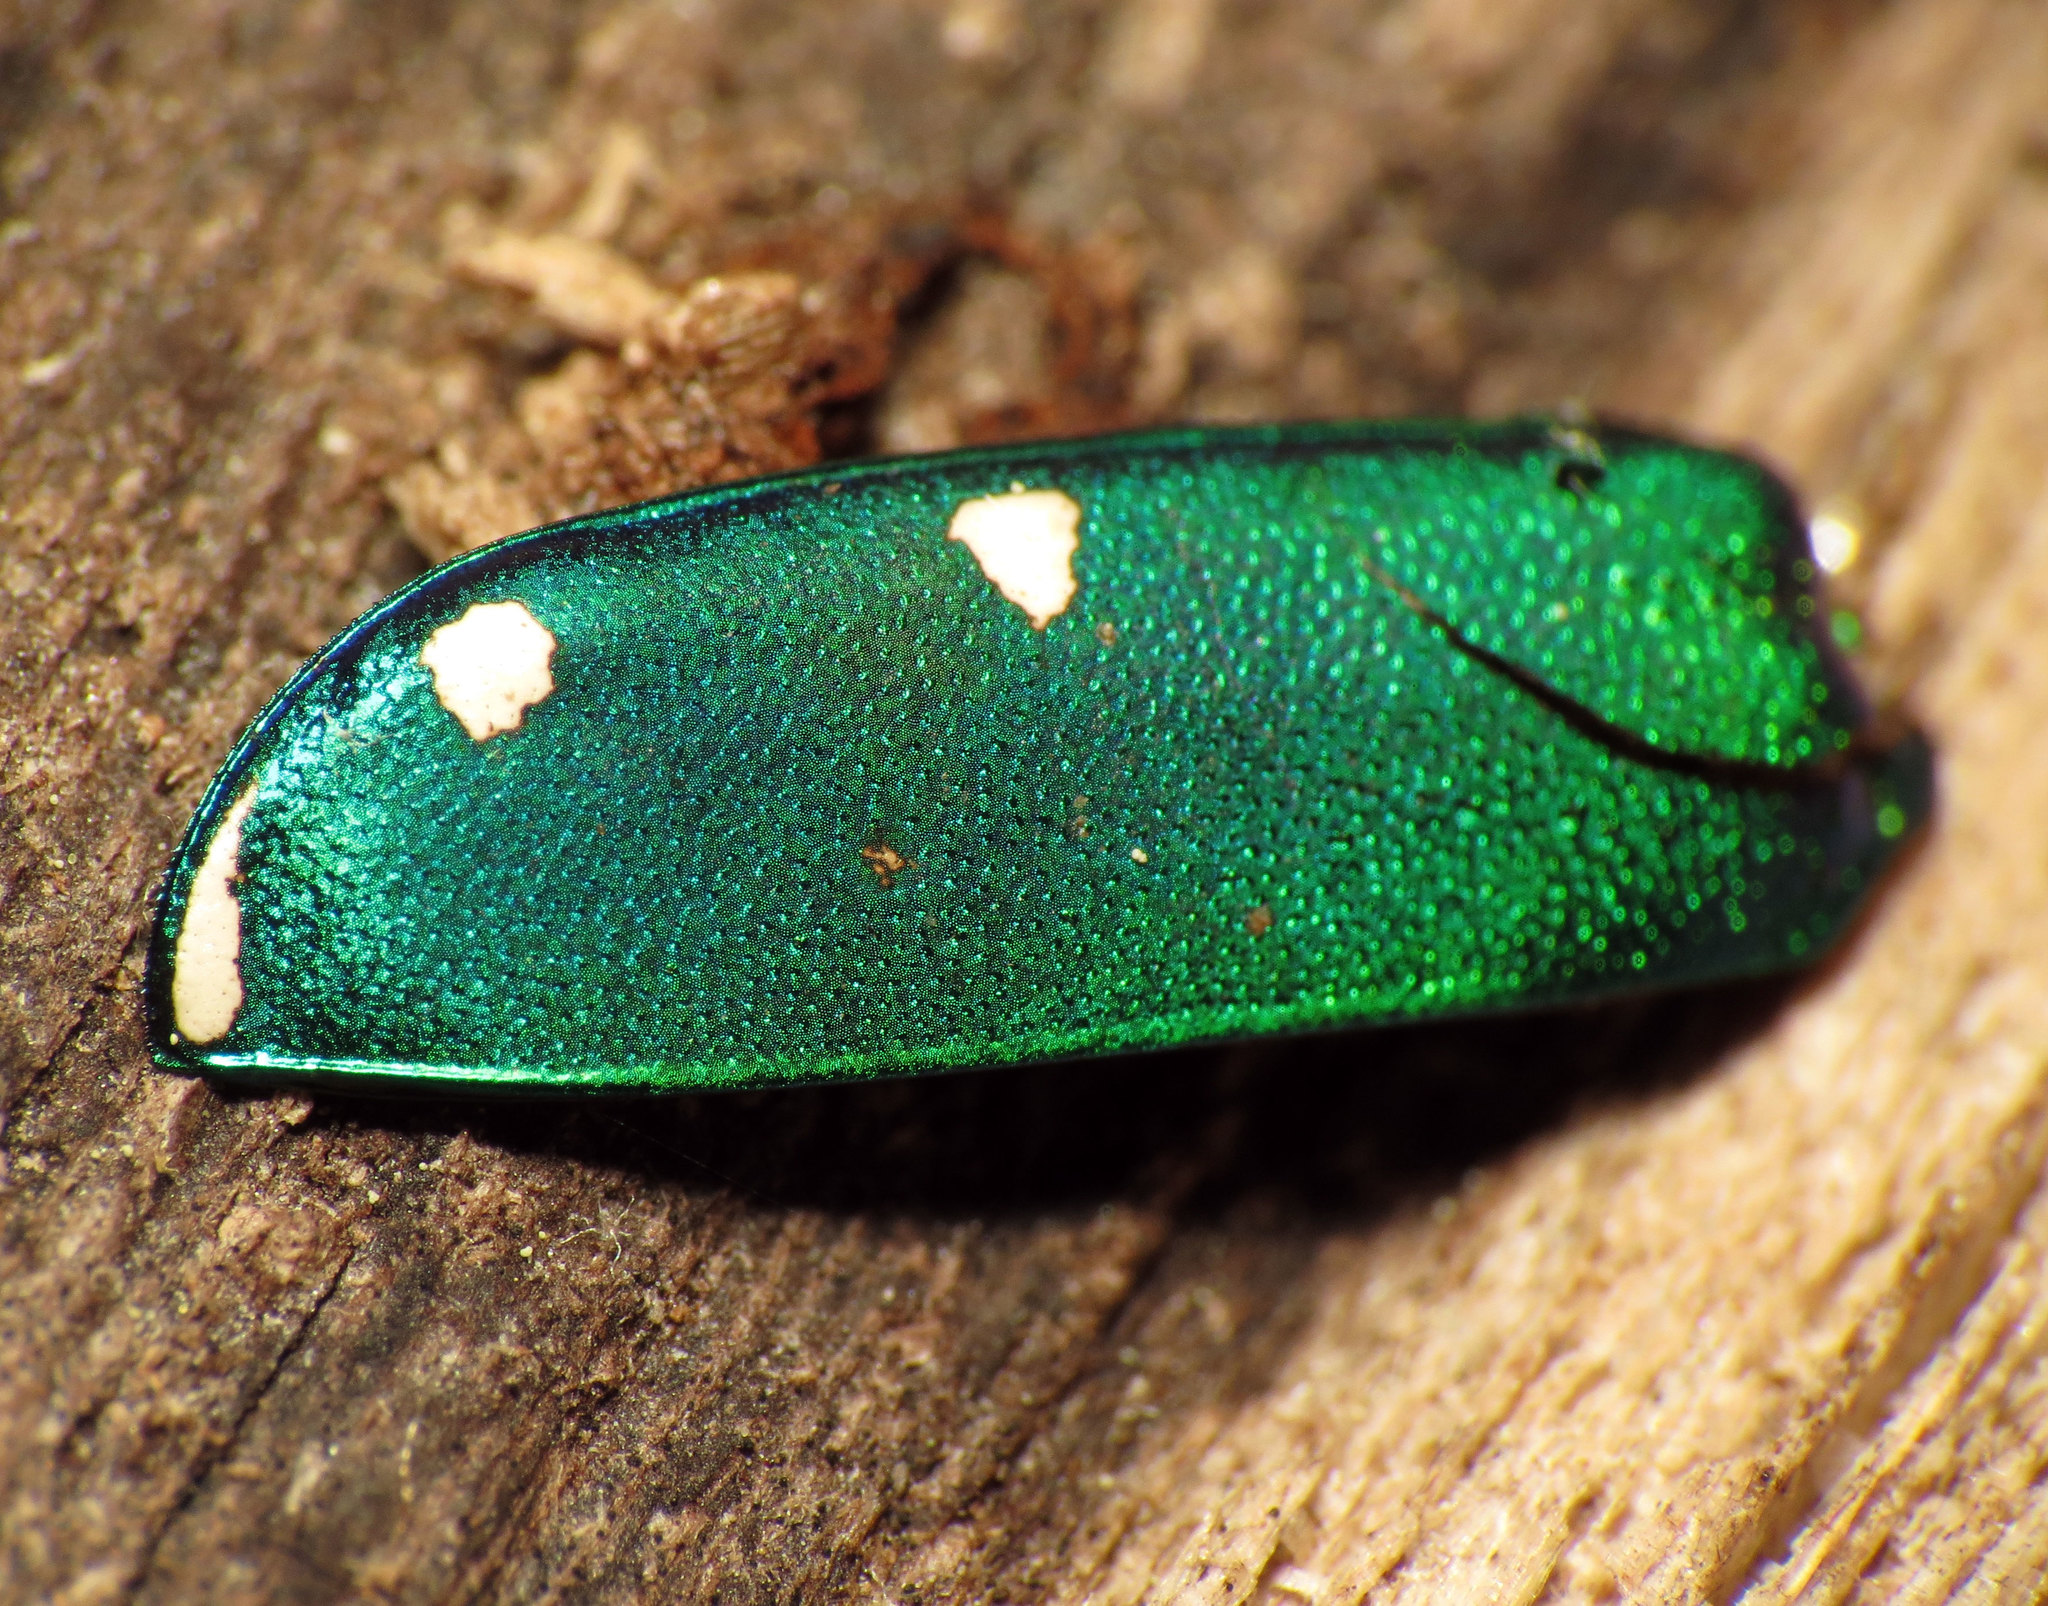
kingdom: Animalia
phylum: Arthropoda
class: Insecta
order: Coleoptera
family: Carabidae
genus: Cicindela
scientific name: Cicindela sexguttata
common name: Six-spotted tiger beetle
